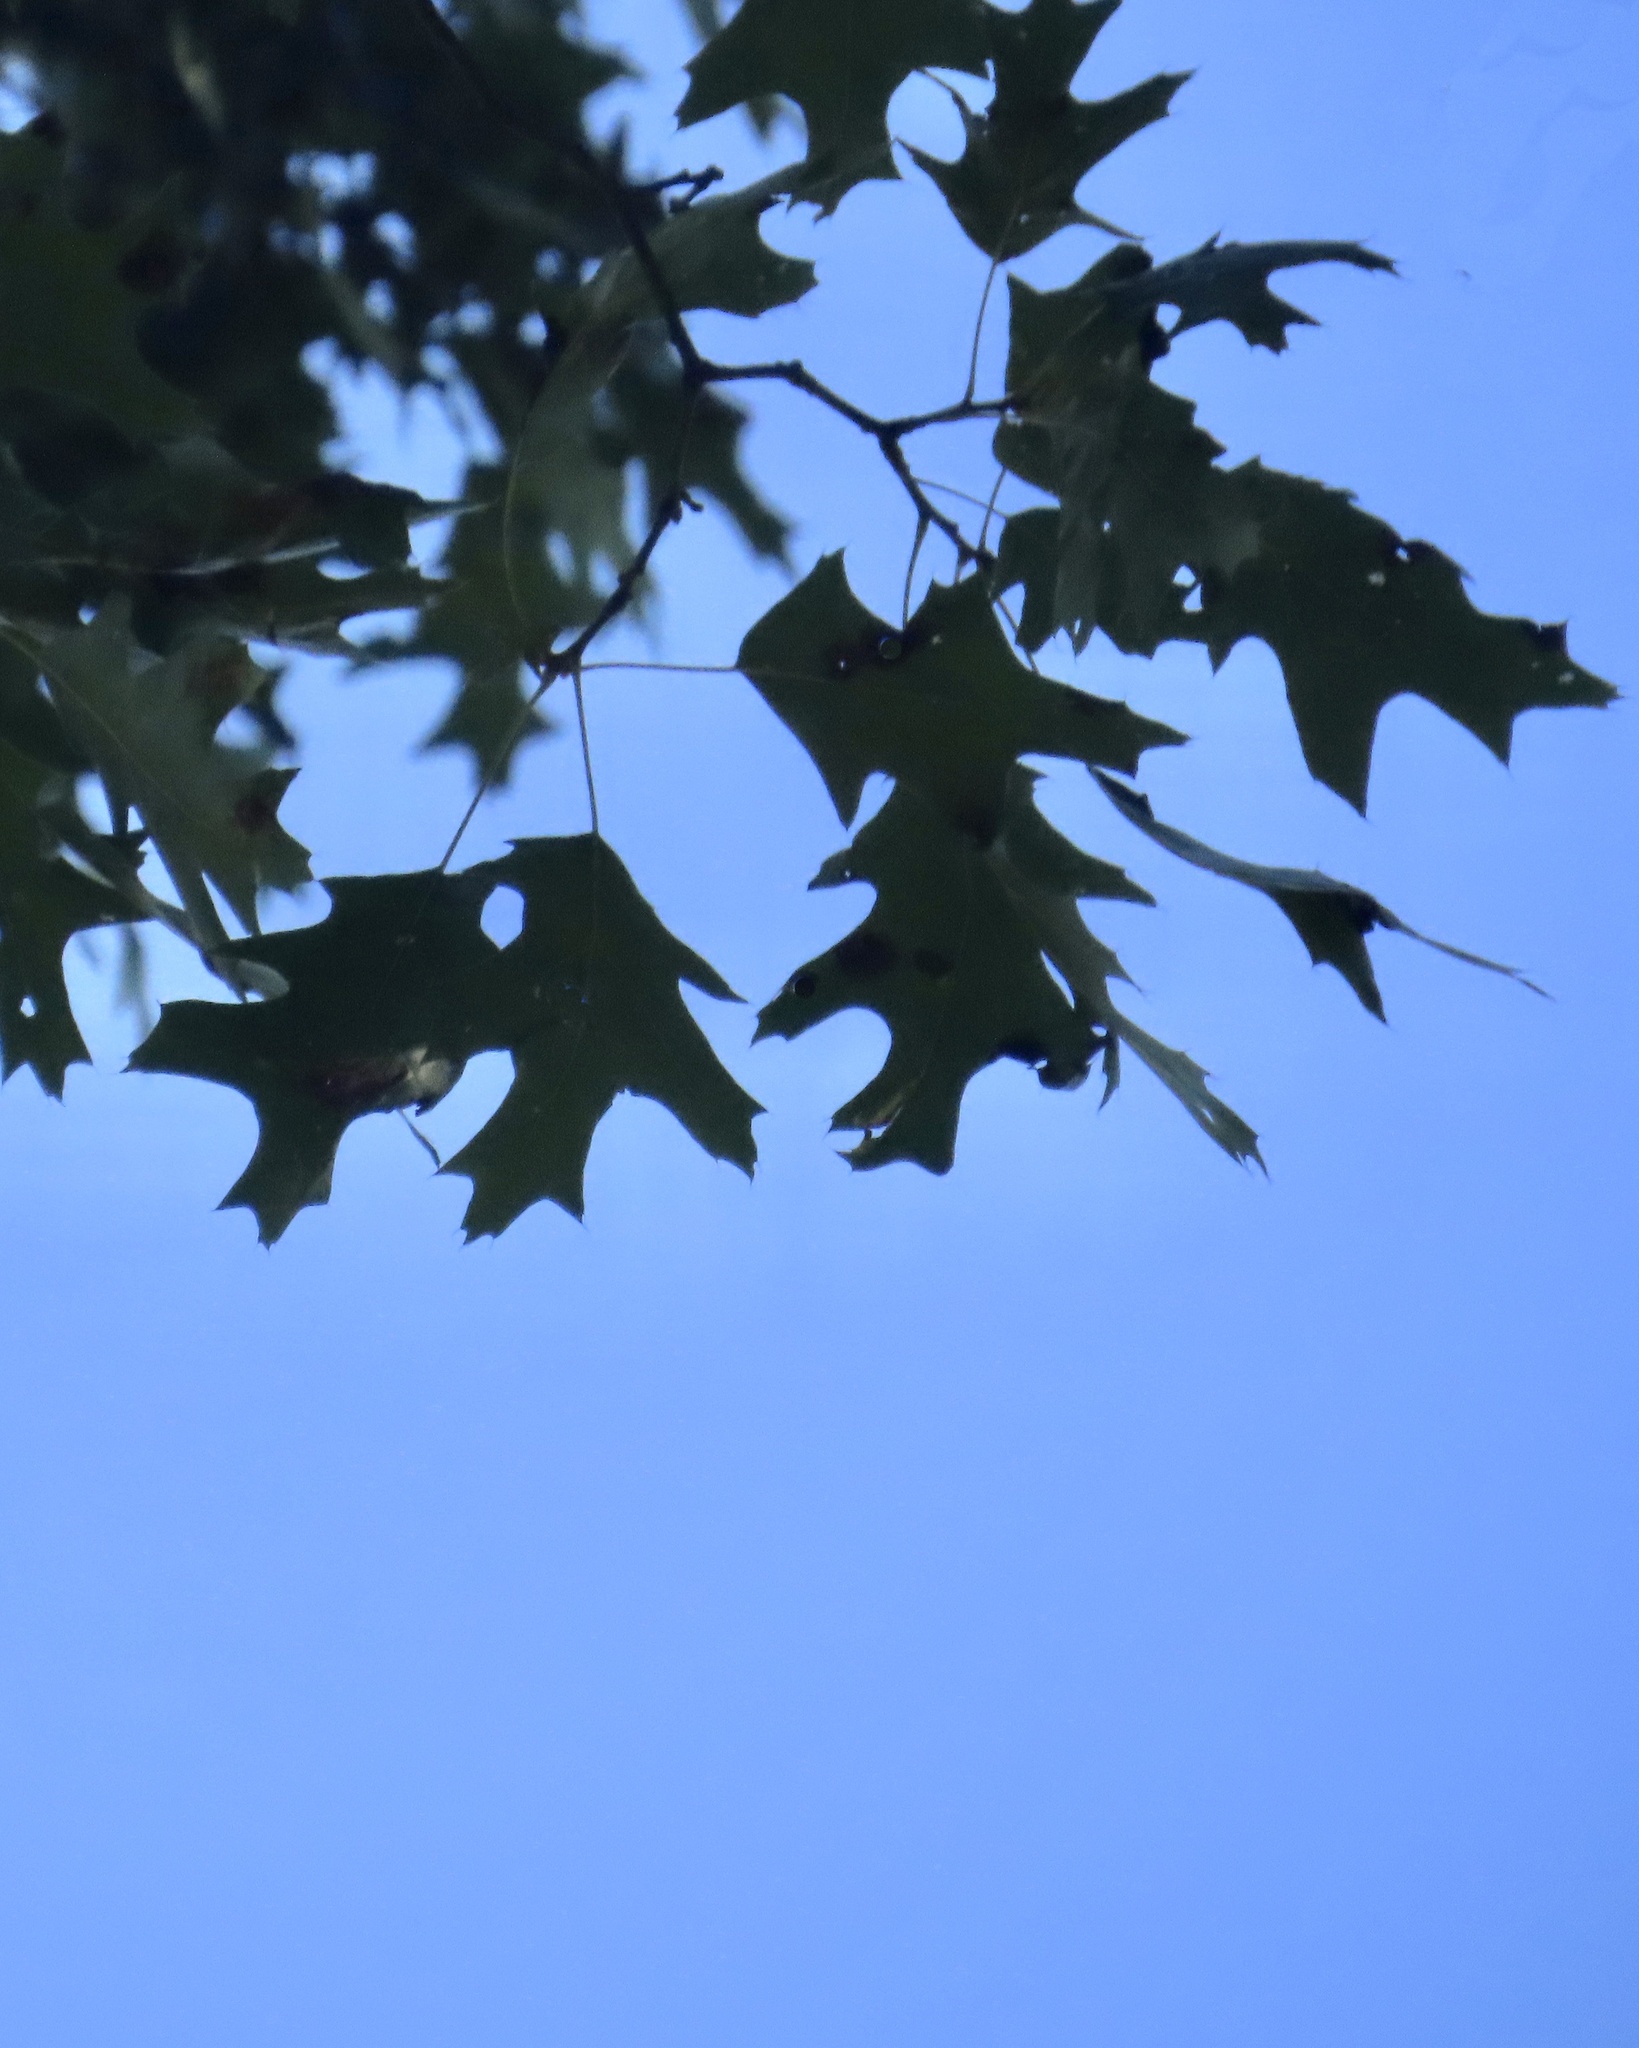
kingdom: Plantae
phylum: Tracheophyta
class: Magnoliopsida
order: Fagales
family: Fagaceae
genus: Quercus
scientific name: Quercus rubra
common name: Red oak
